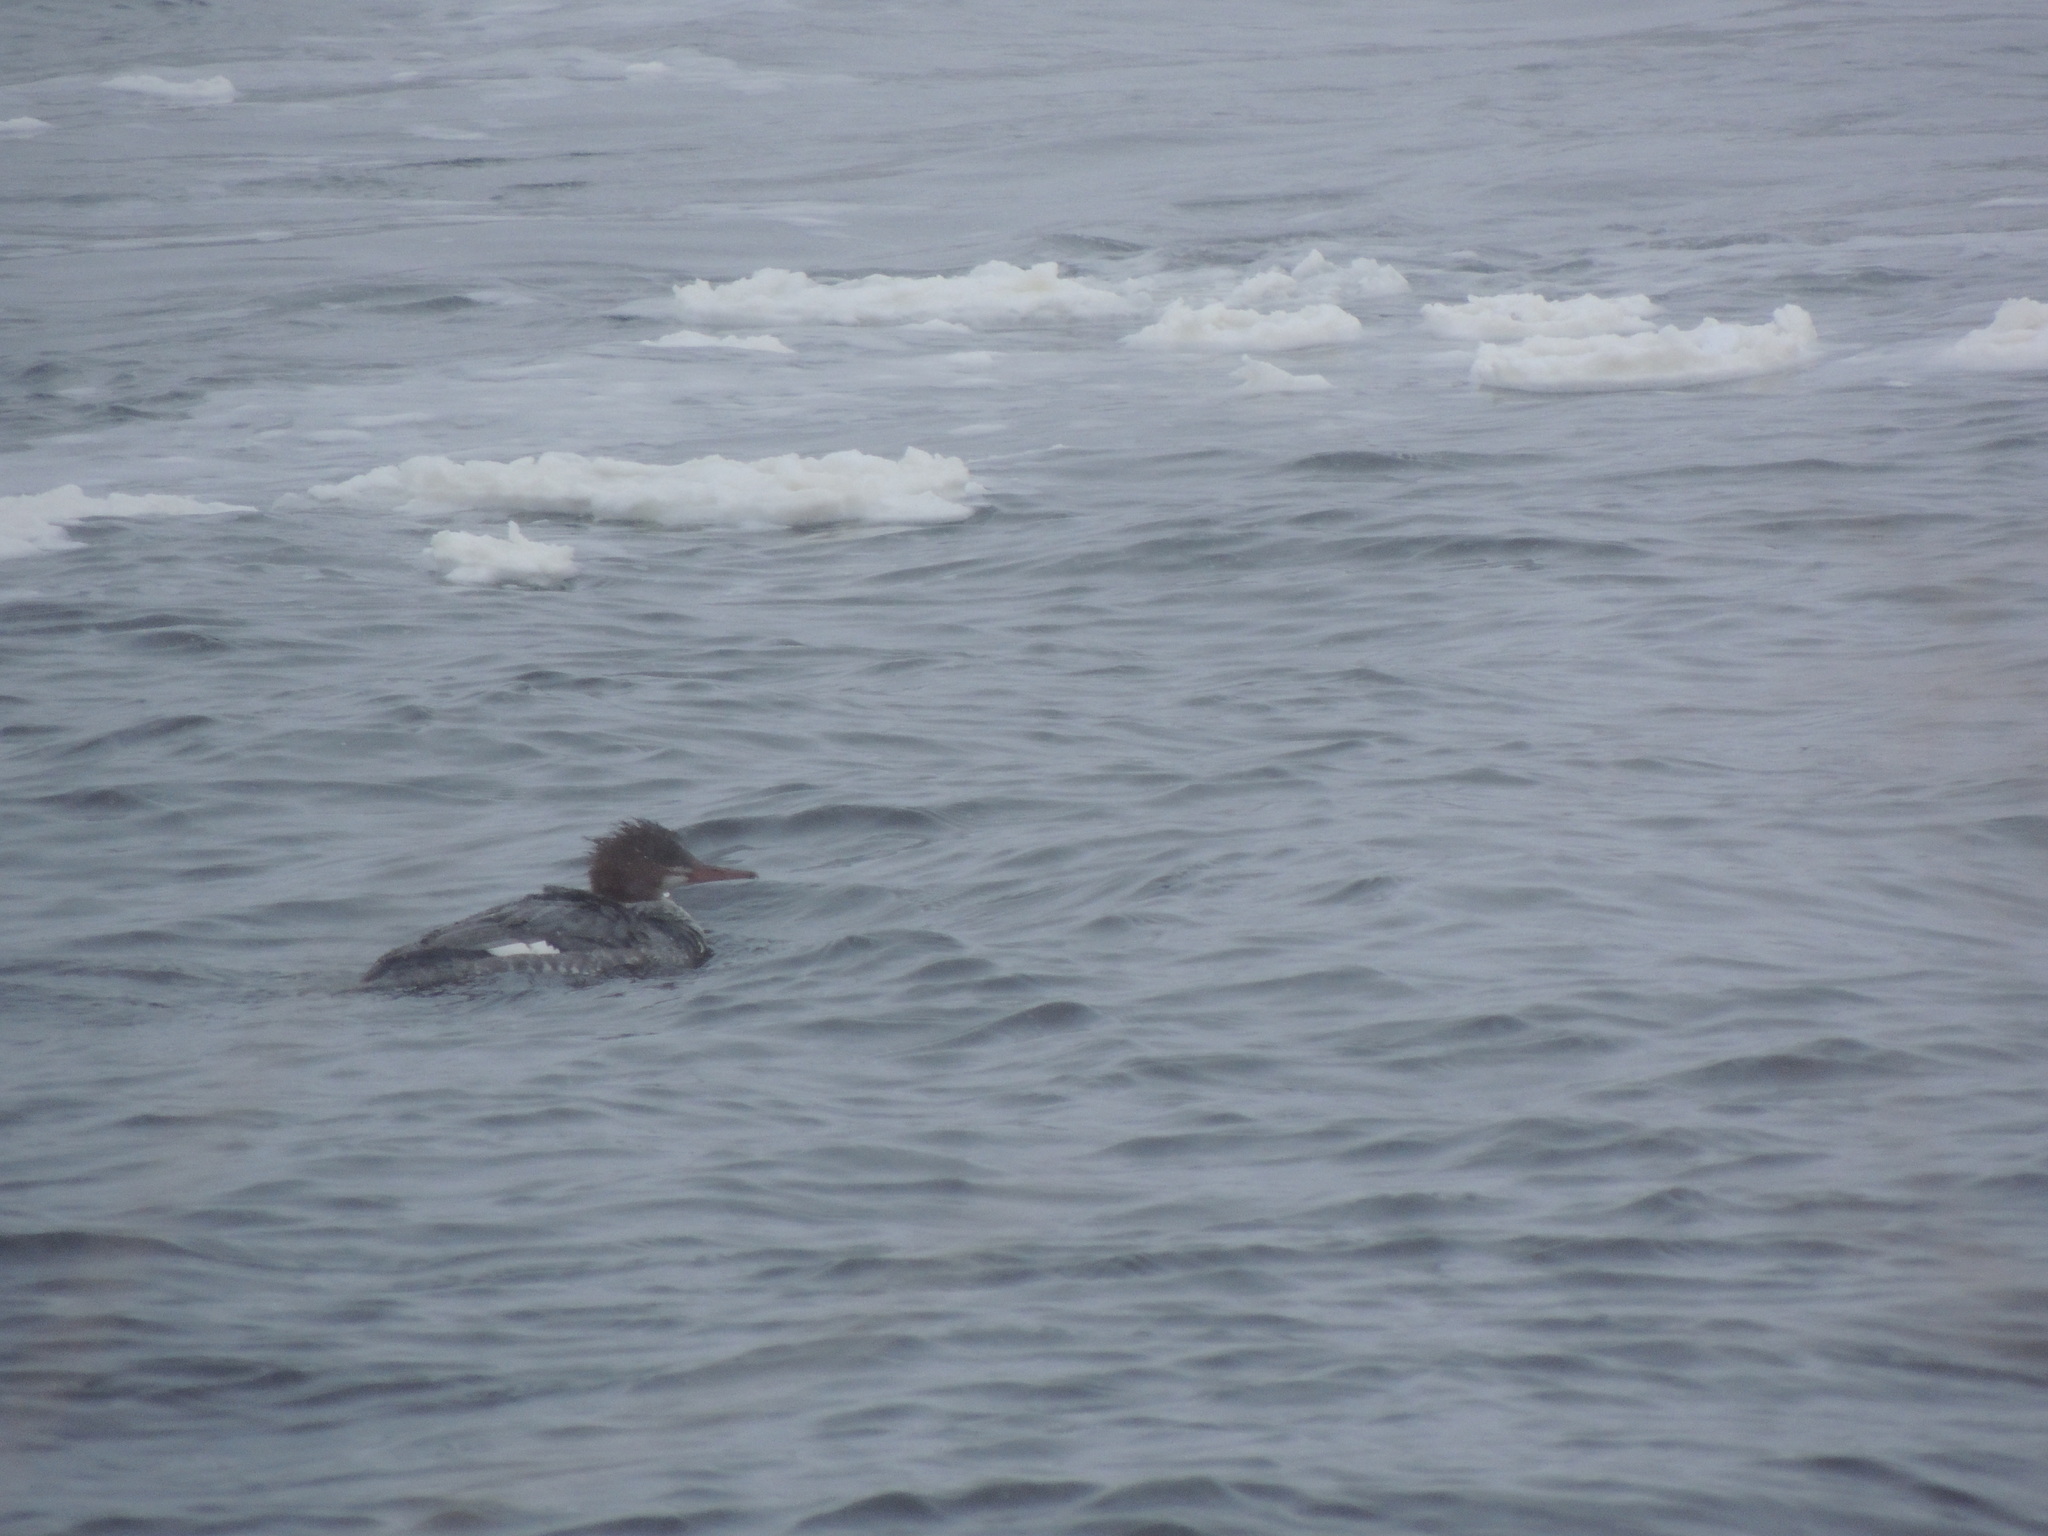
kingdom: Animalia
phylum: Chordata
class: Aves
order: Anseriformes
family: Anatidae
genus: Mergus
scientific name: Mergus merganser
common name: Common merganser
